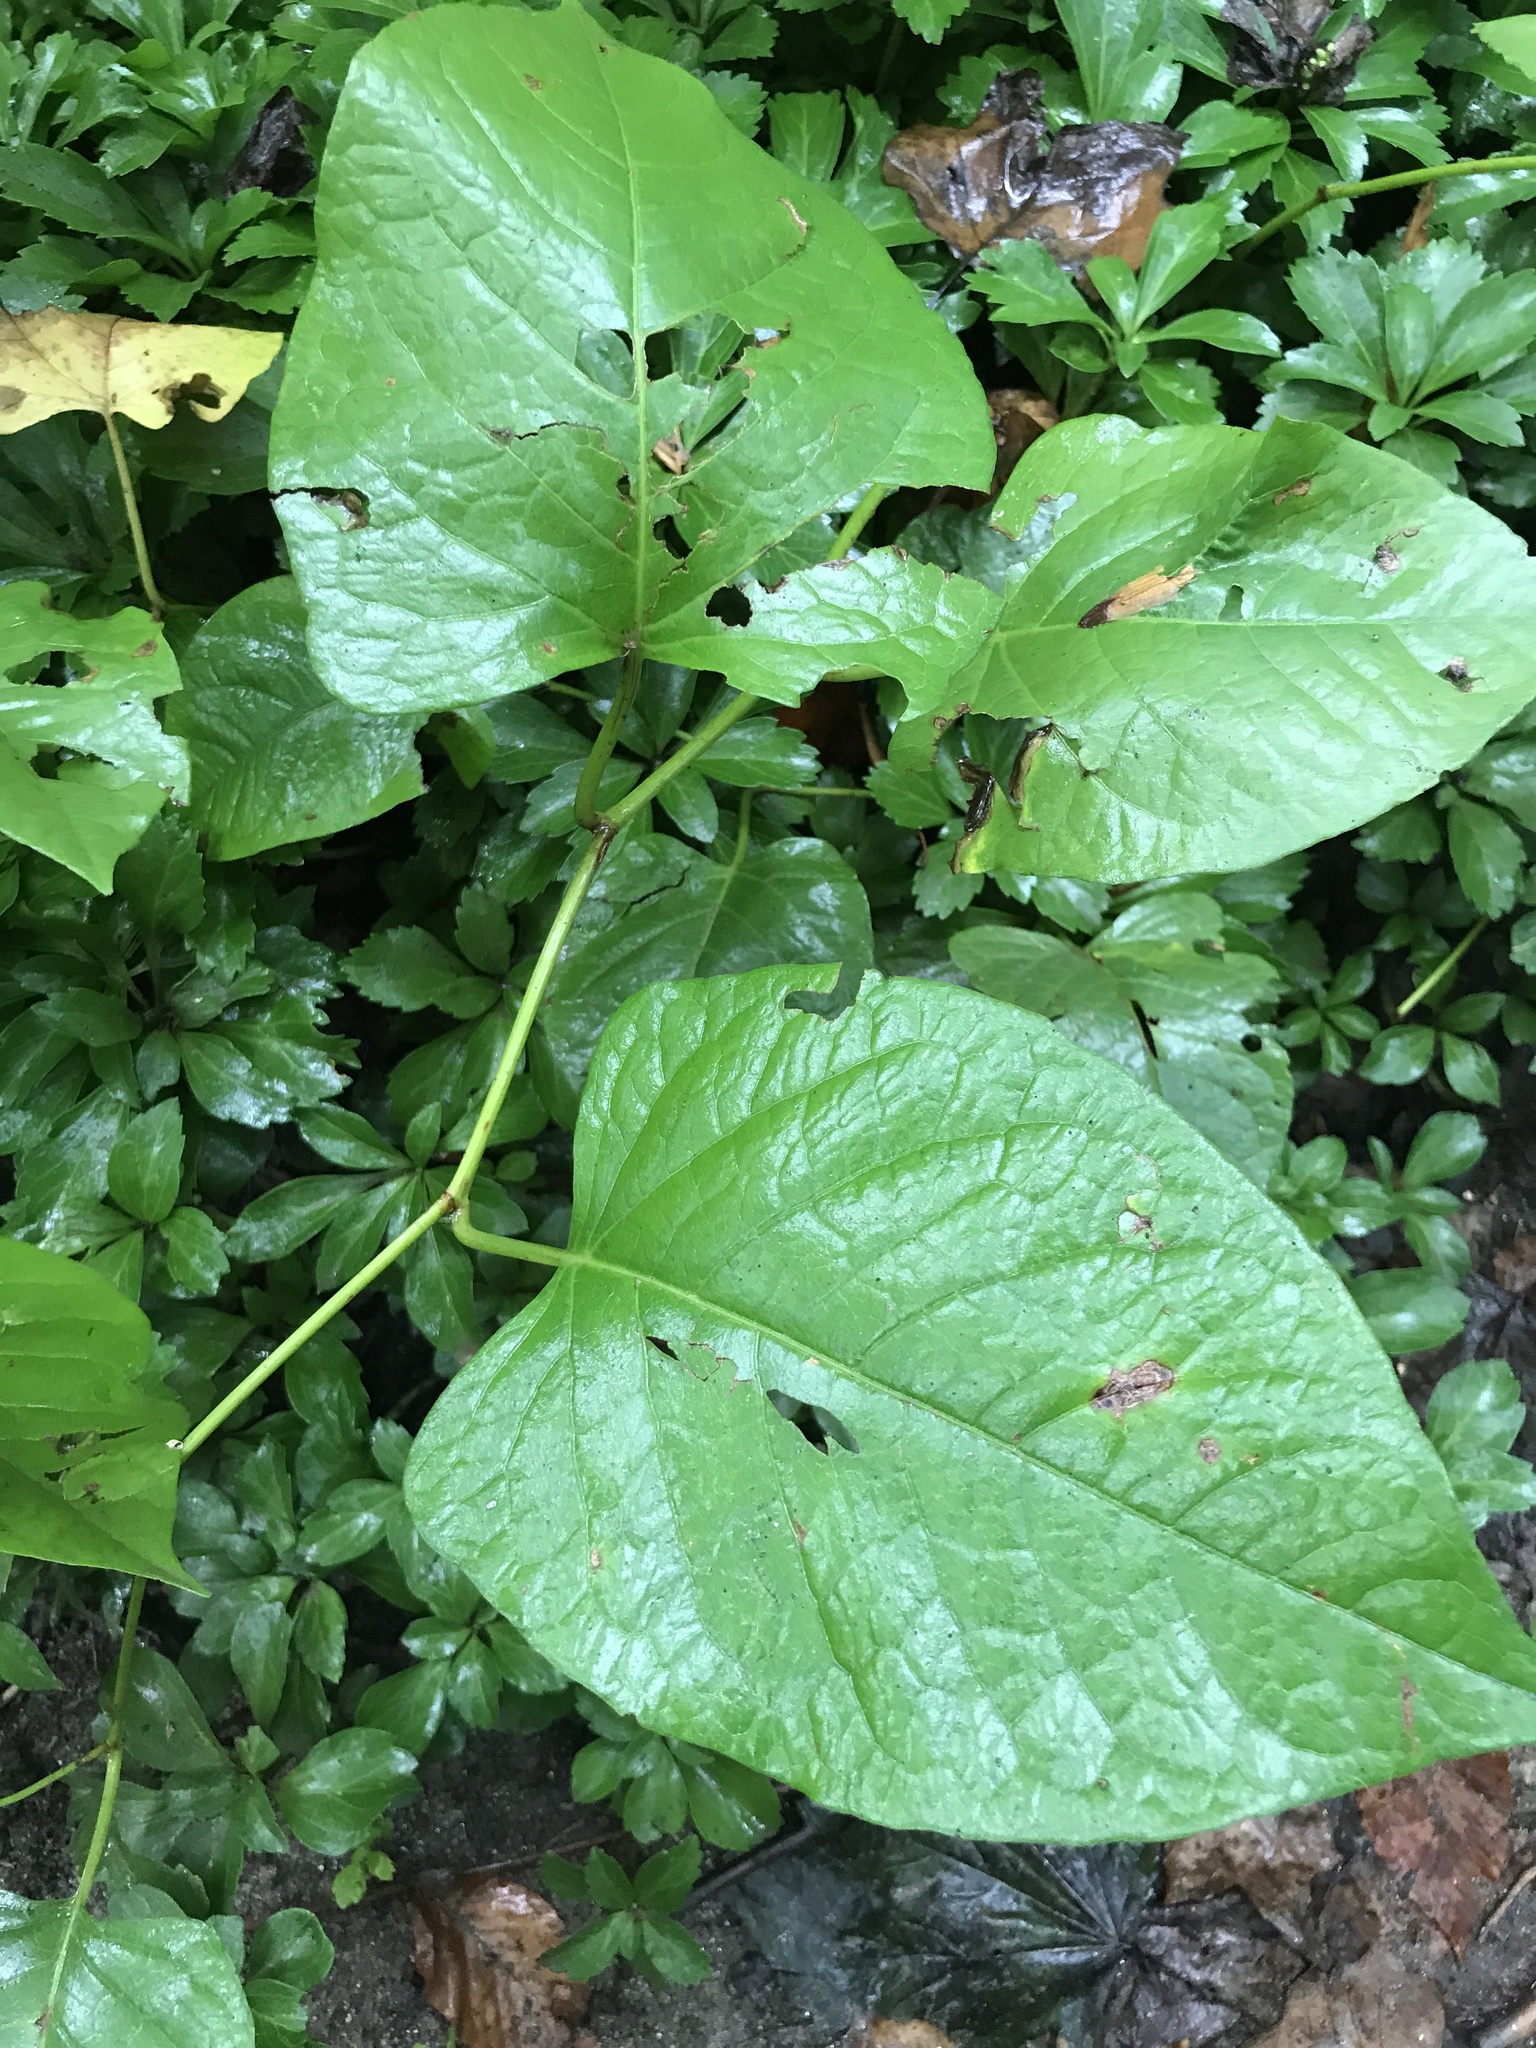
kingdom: Plantae
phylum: Tracheophyta
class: Magnoliopsida
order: Caryophyllales
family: Polygonaceae
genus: Reynoutria
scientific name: Reynoutria japonica
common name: Japanese knotweed
